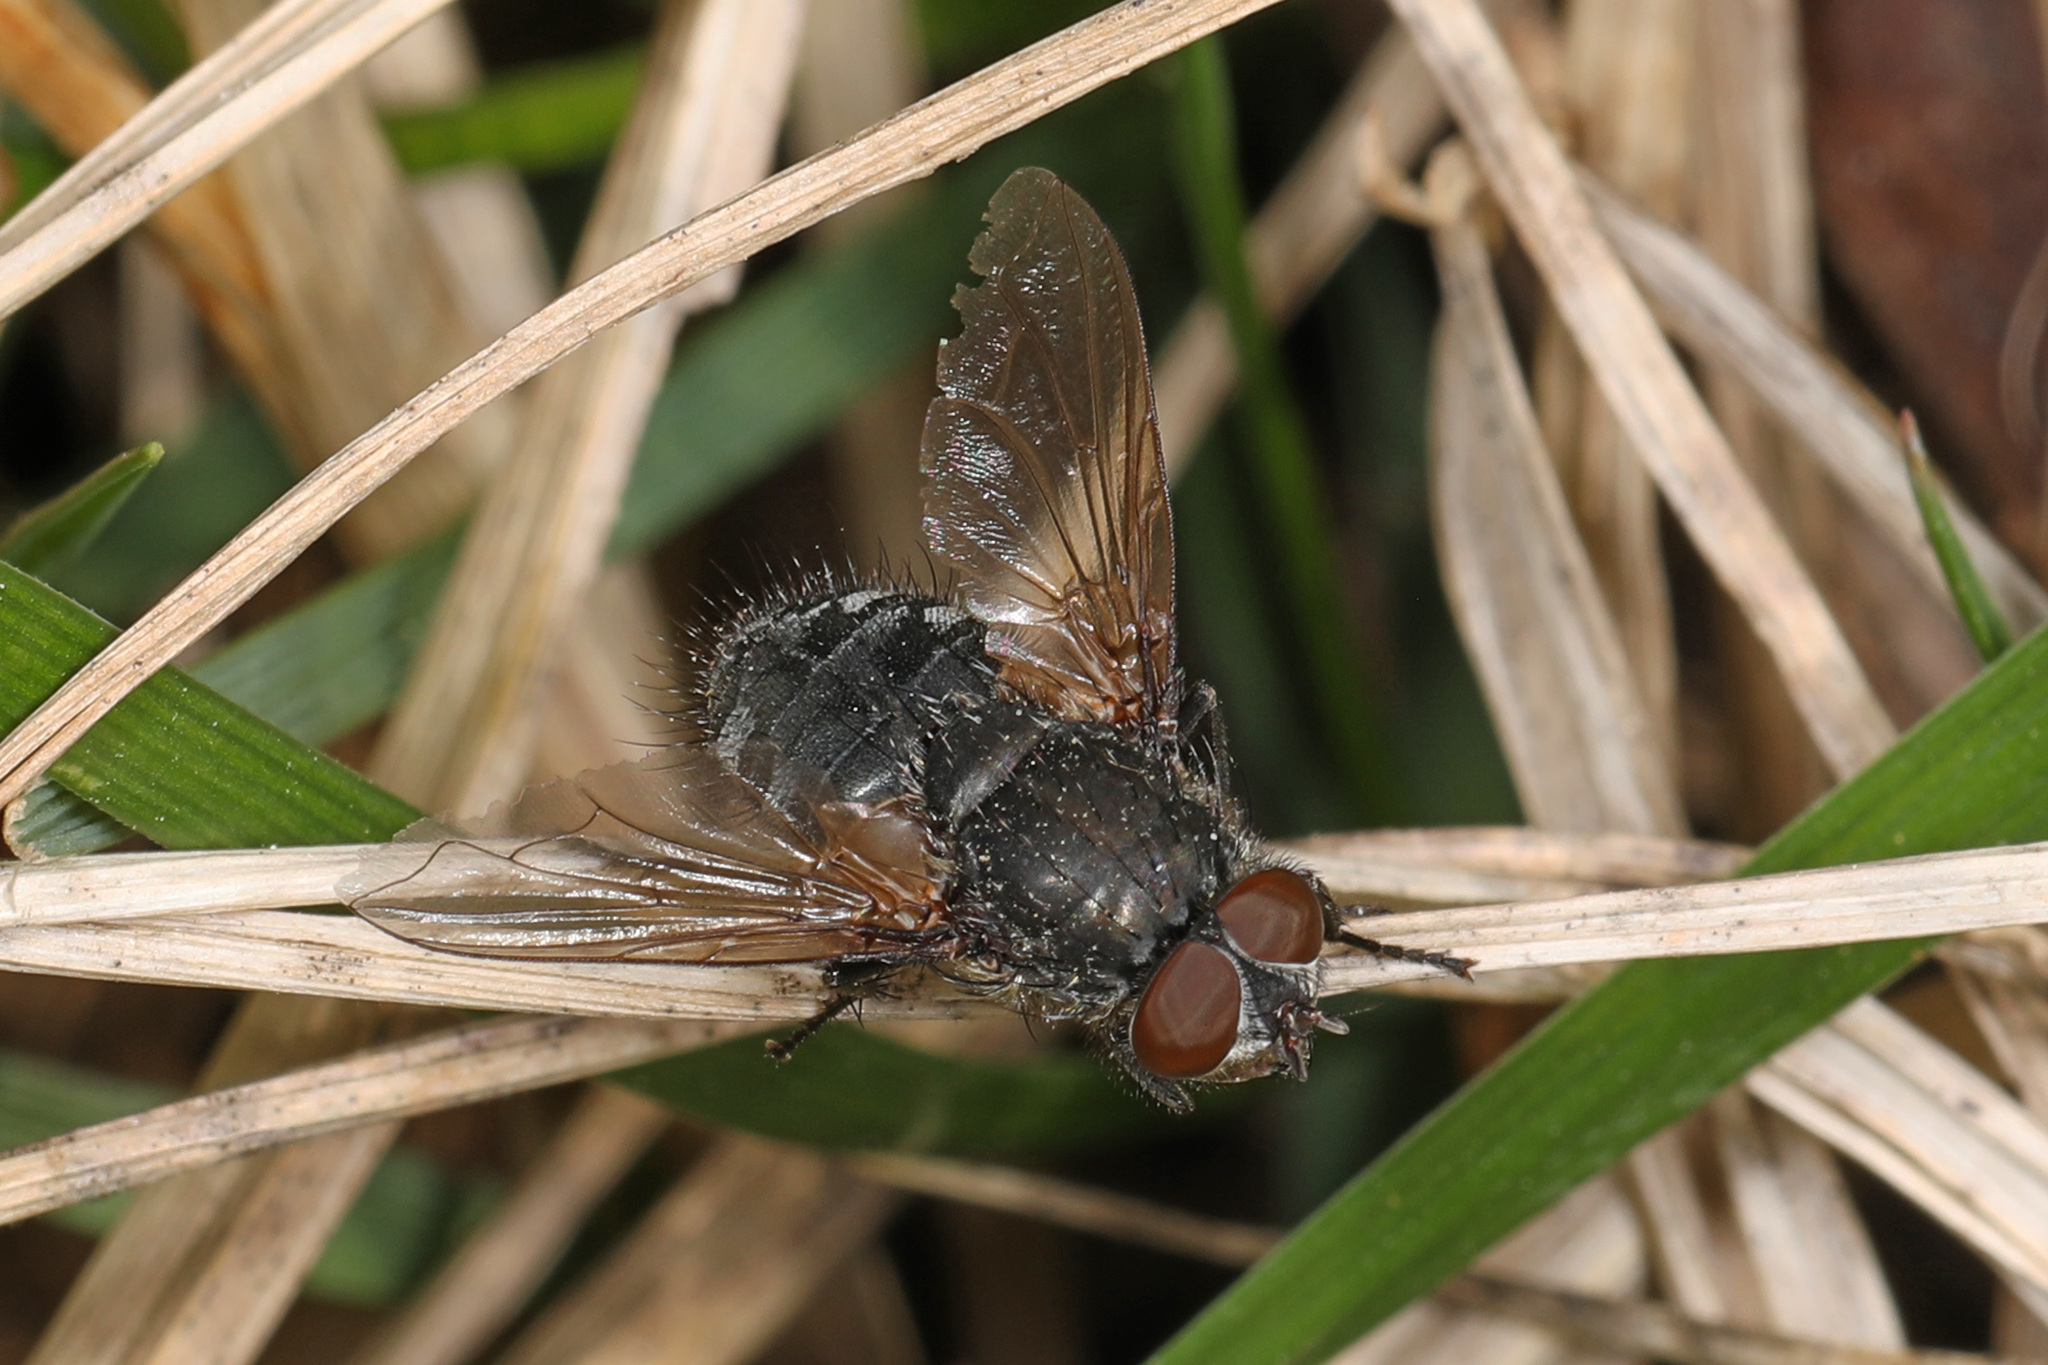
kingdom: Animalia
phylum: Arthropoda
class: Insecta
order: Diptera
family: Polleniidae
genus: Pollenia
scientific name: Pollenia
